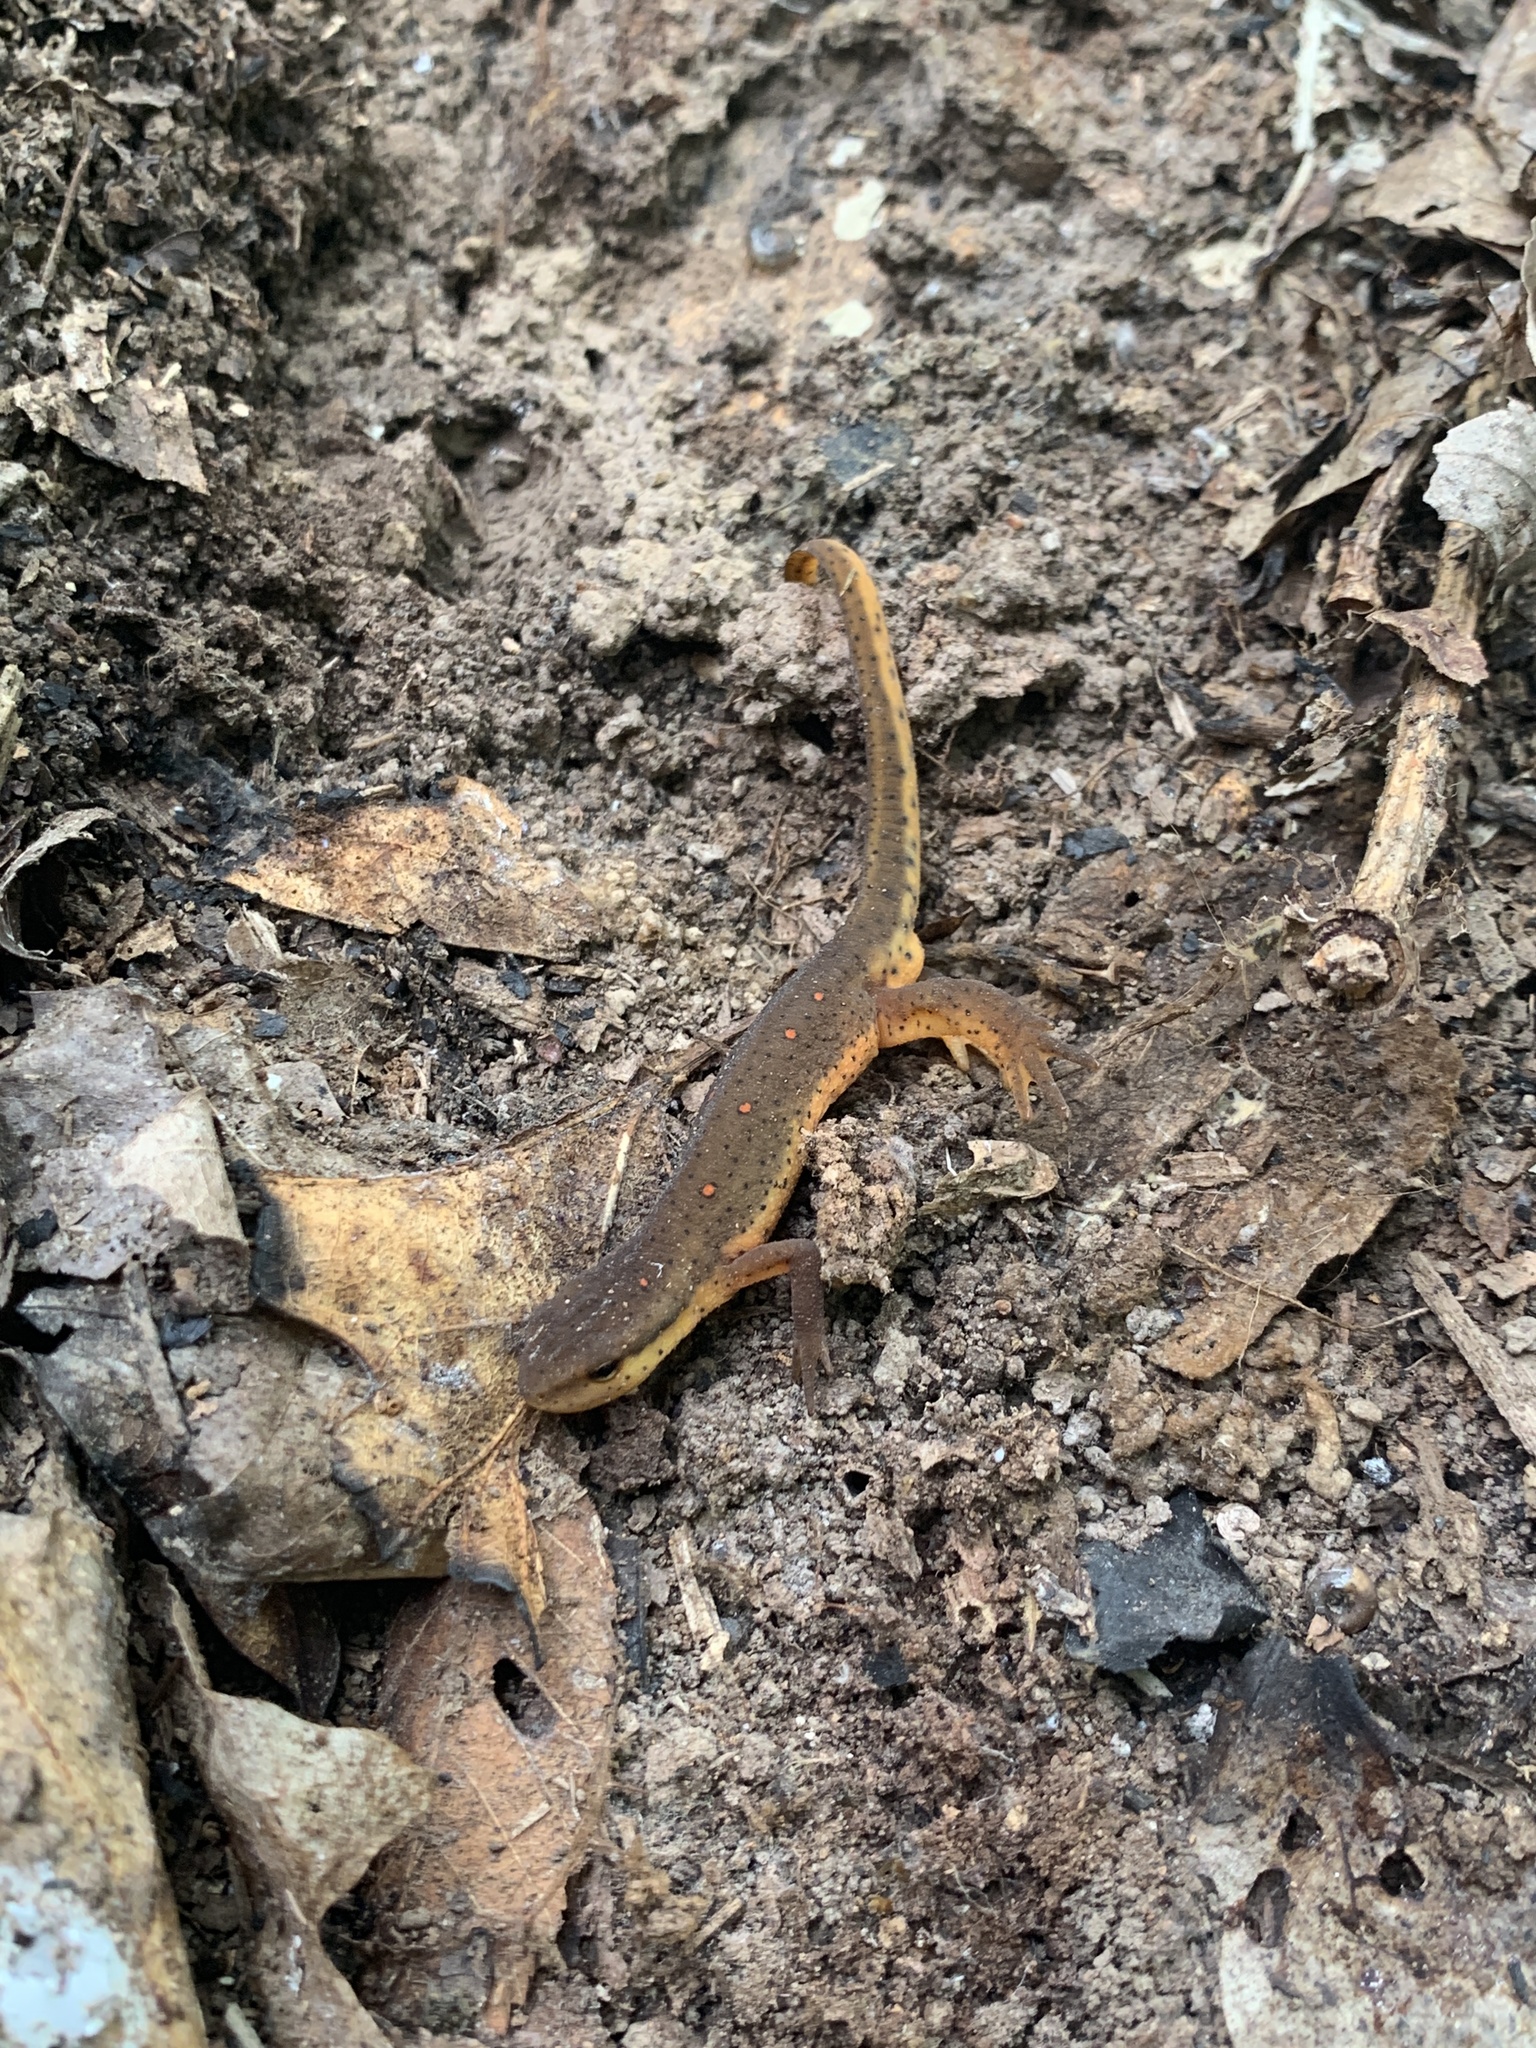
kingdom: Animalia
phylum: Chordata
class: Amphibia
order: Caudata
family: Salamandridae
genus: Notophthalmus
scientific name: Notophthalmus viridescens
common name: Eastern newt
